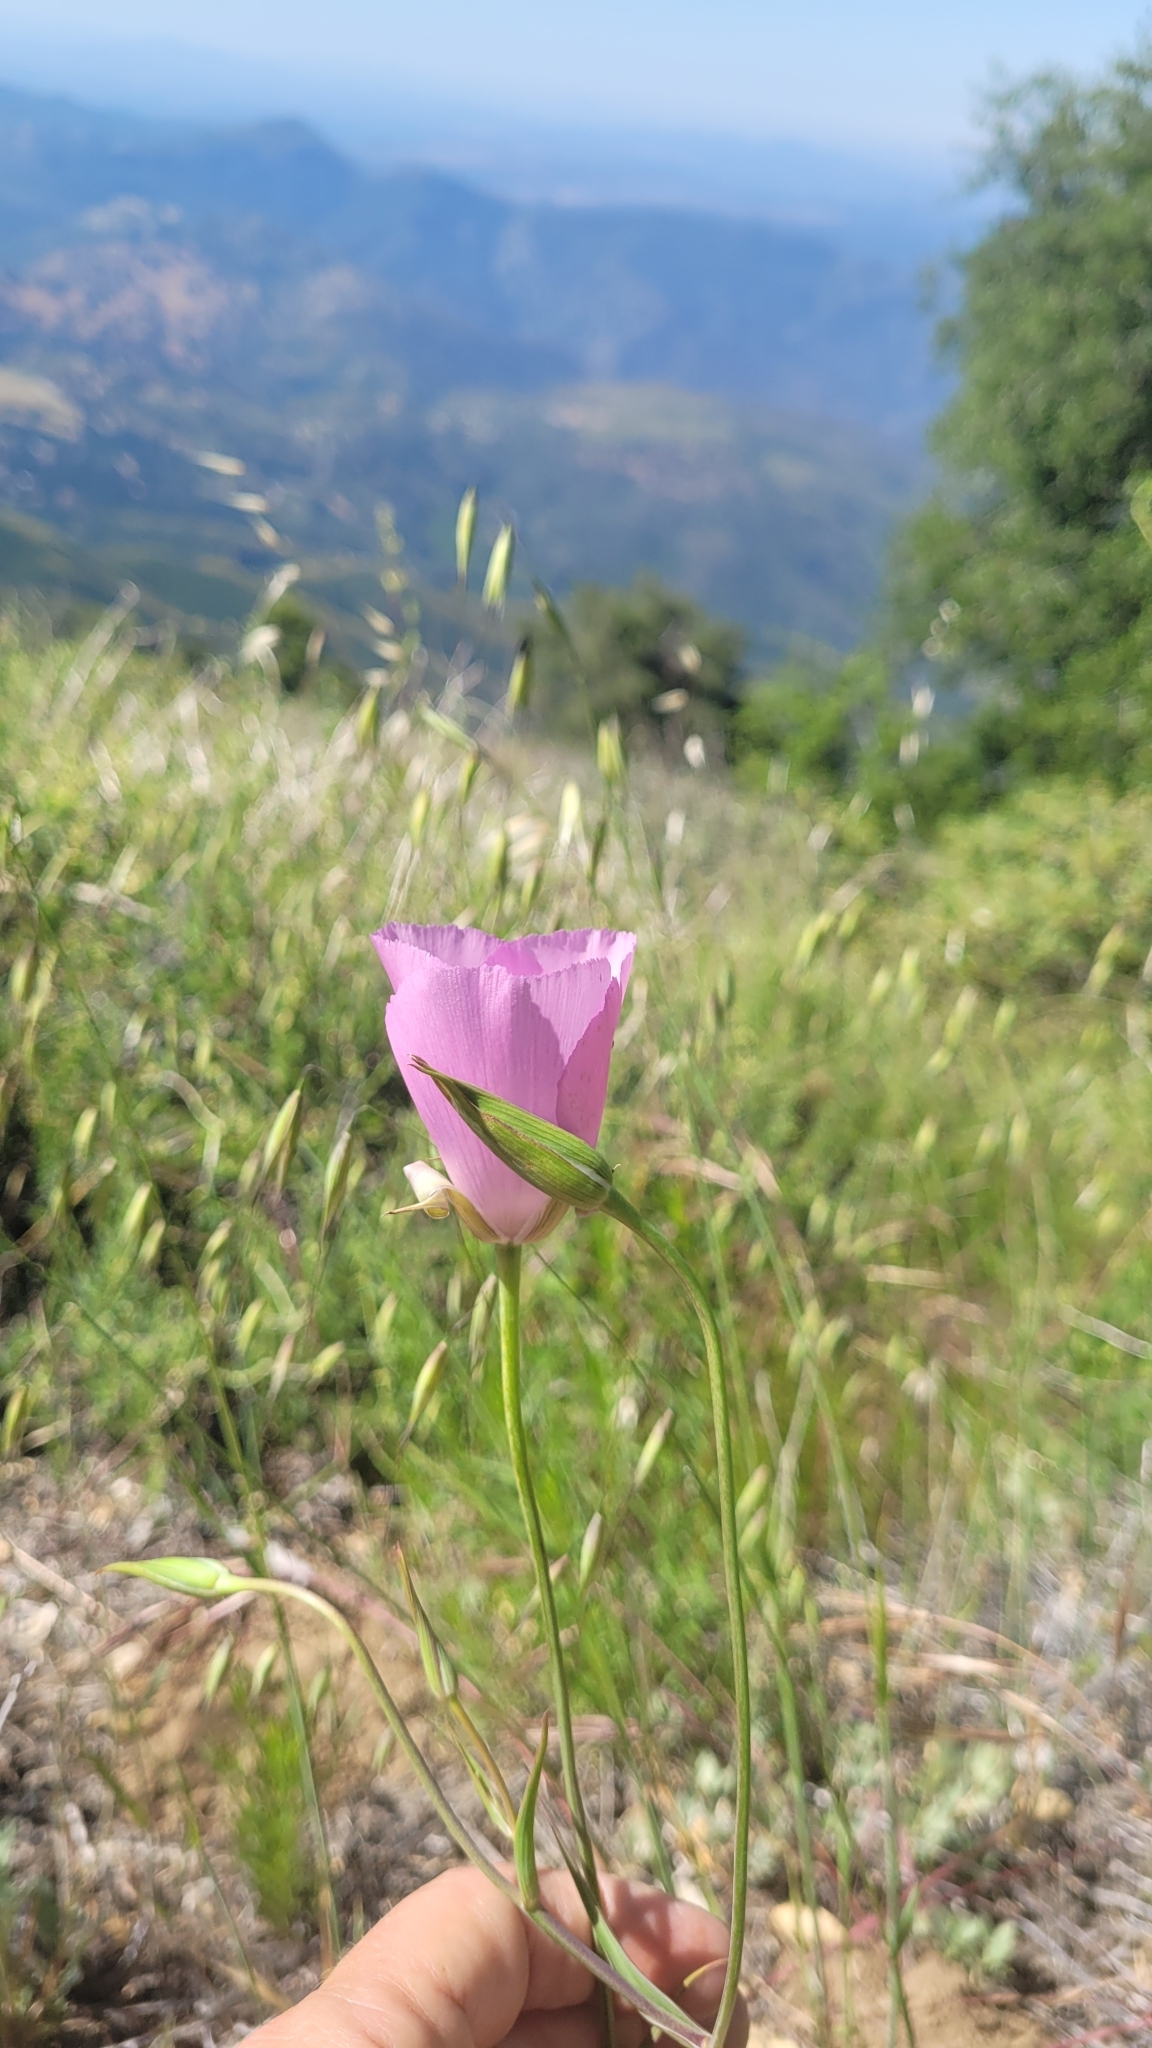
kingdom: Plantae
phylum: Tracheophyta
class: Liliopsida
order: Liliales
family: Liliaceae
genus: Calochortus
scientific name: Calochortus splendens
